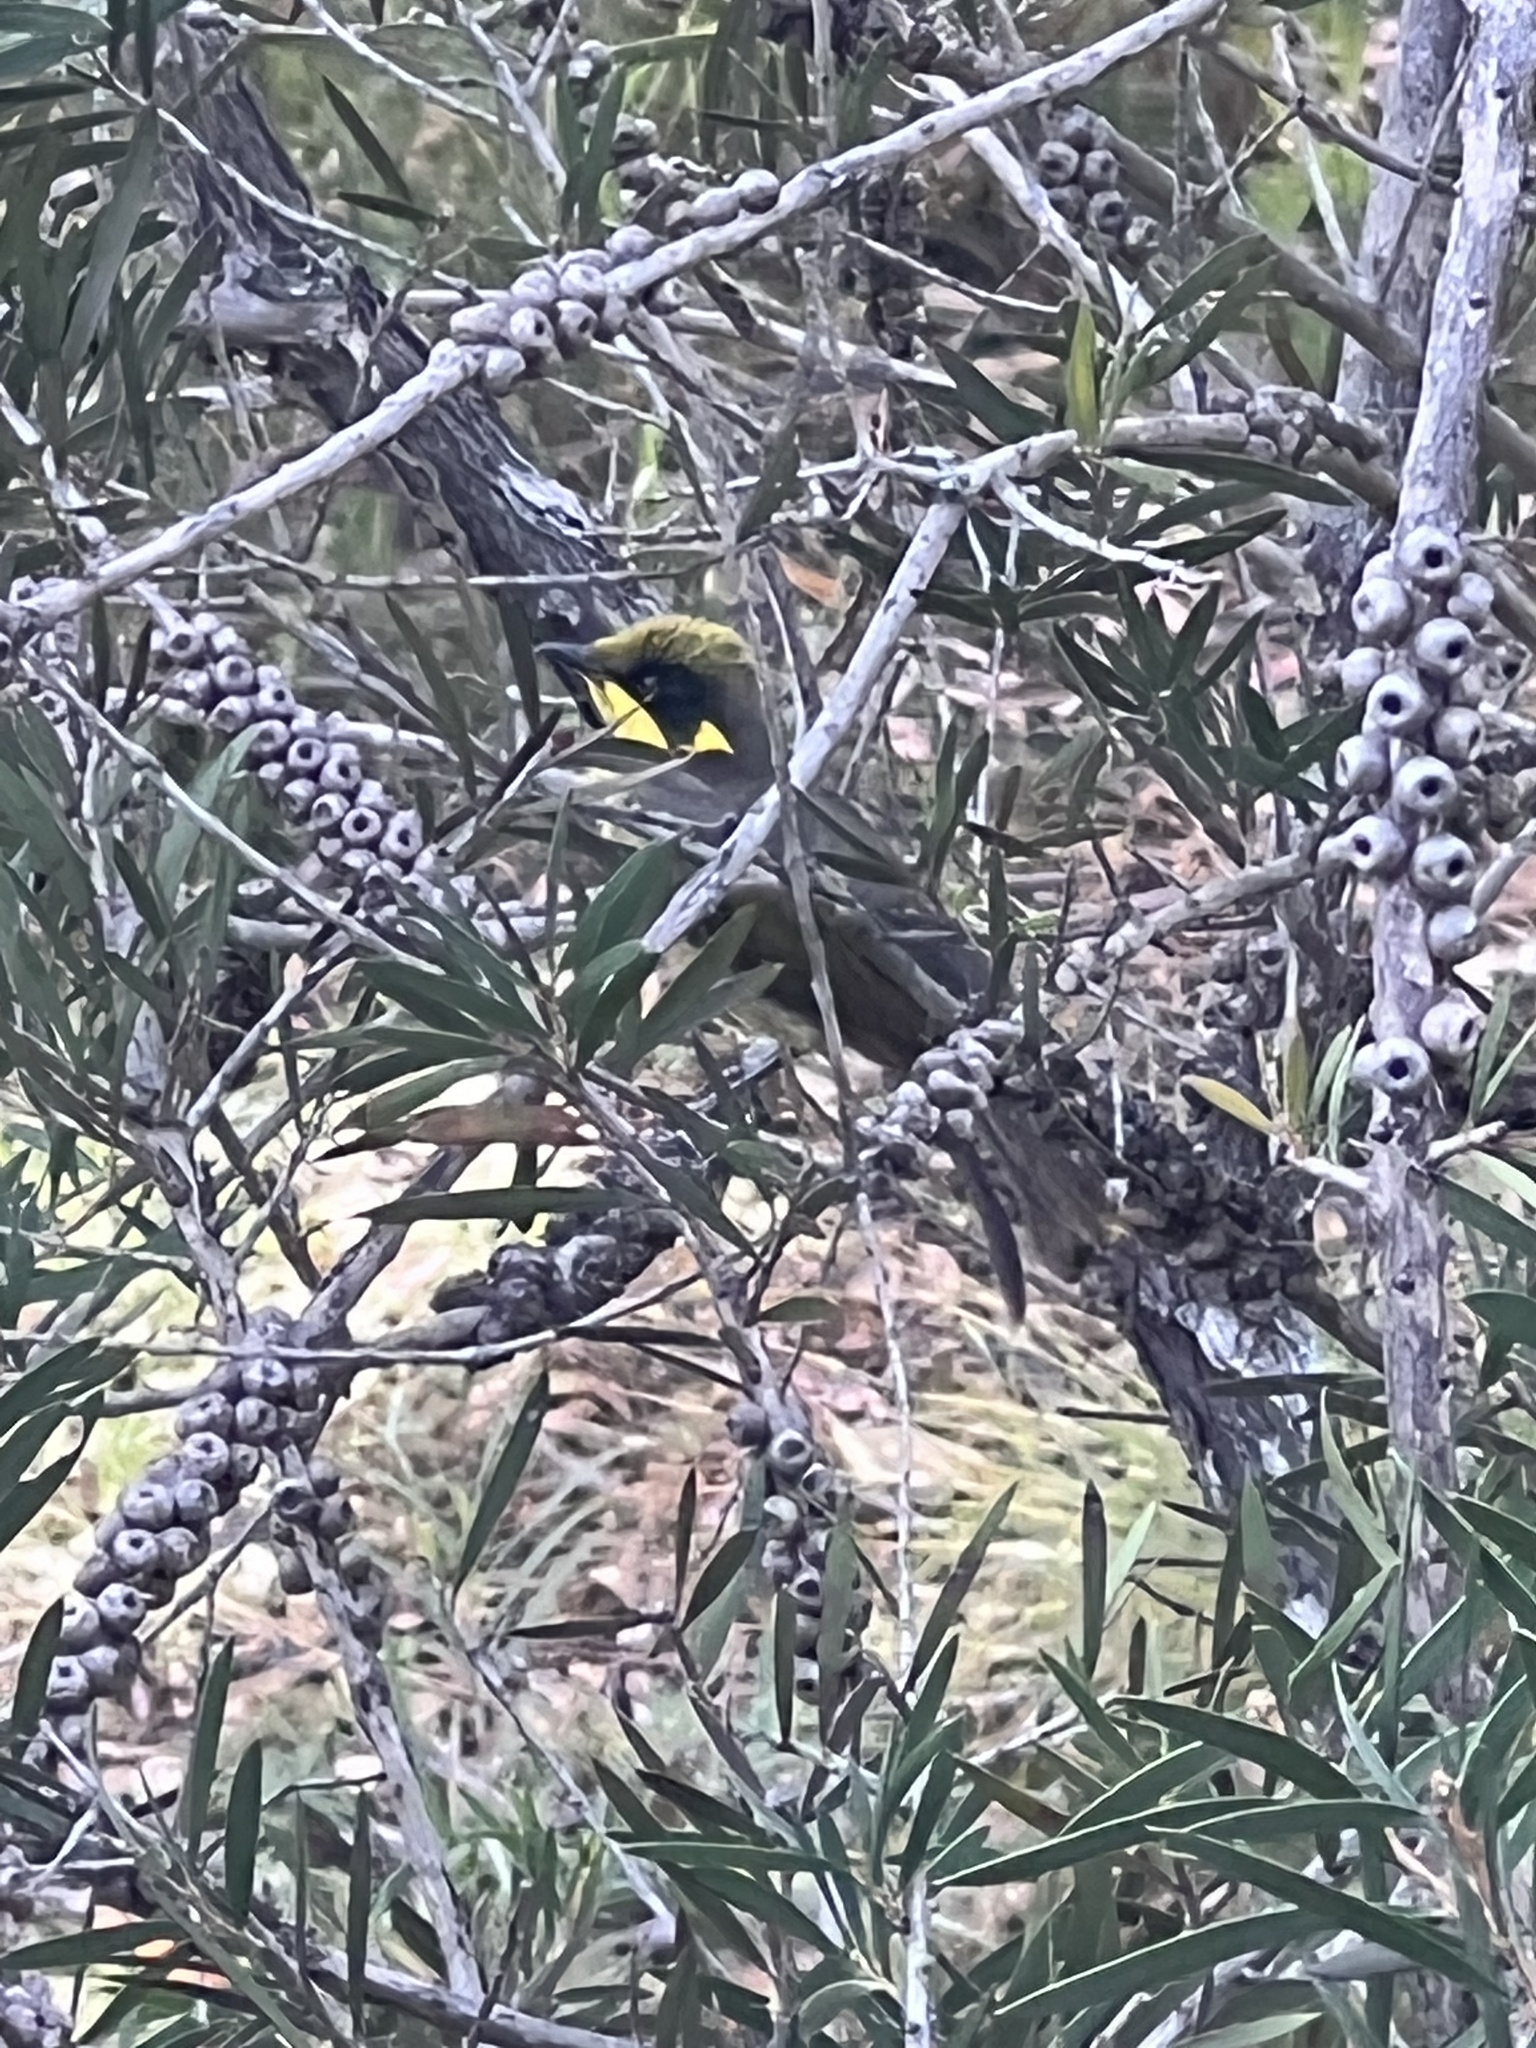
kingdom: Animalia
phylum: Chordata
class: Aves
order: Passeriformes
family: Meliphagidae
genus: Lichenostomus
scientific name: Lichenostomus melanops
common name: Yellow-tufted honeyeater
